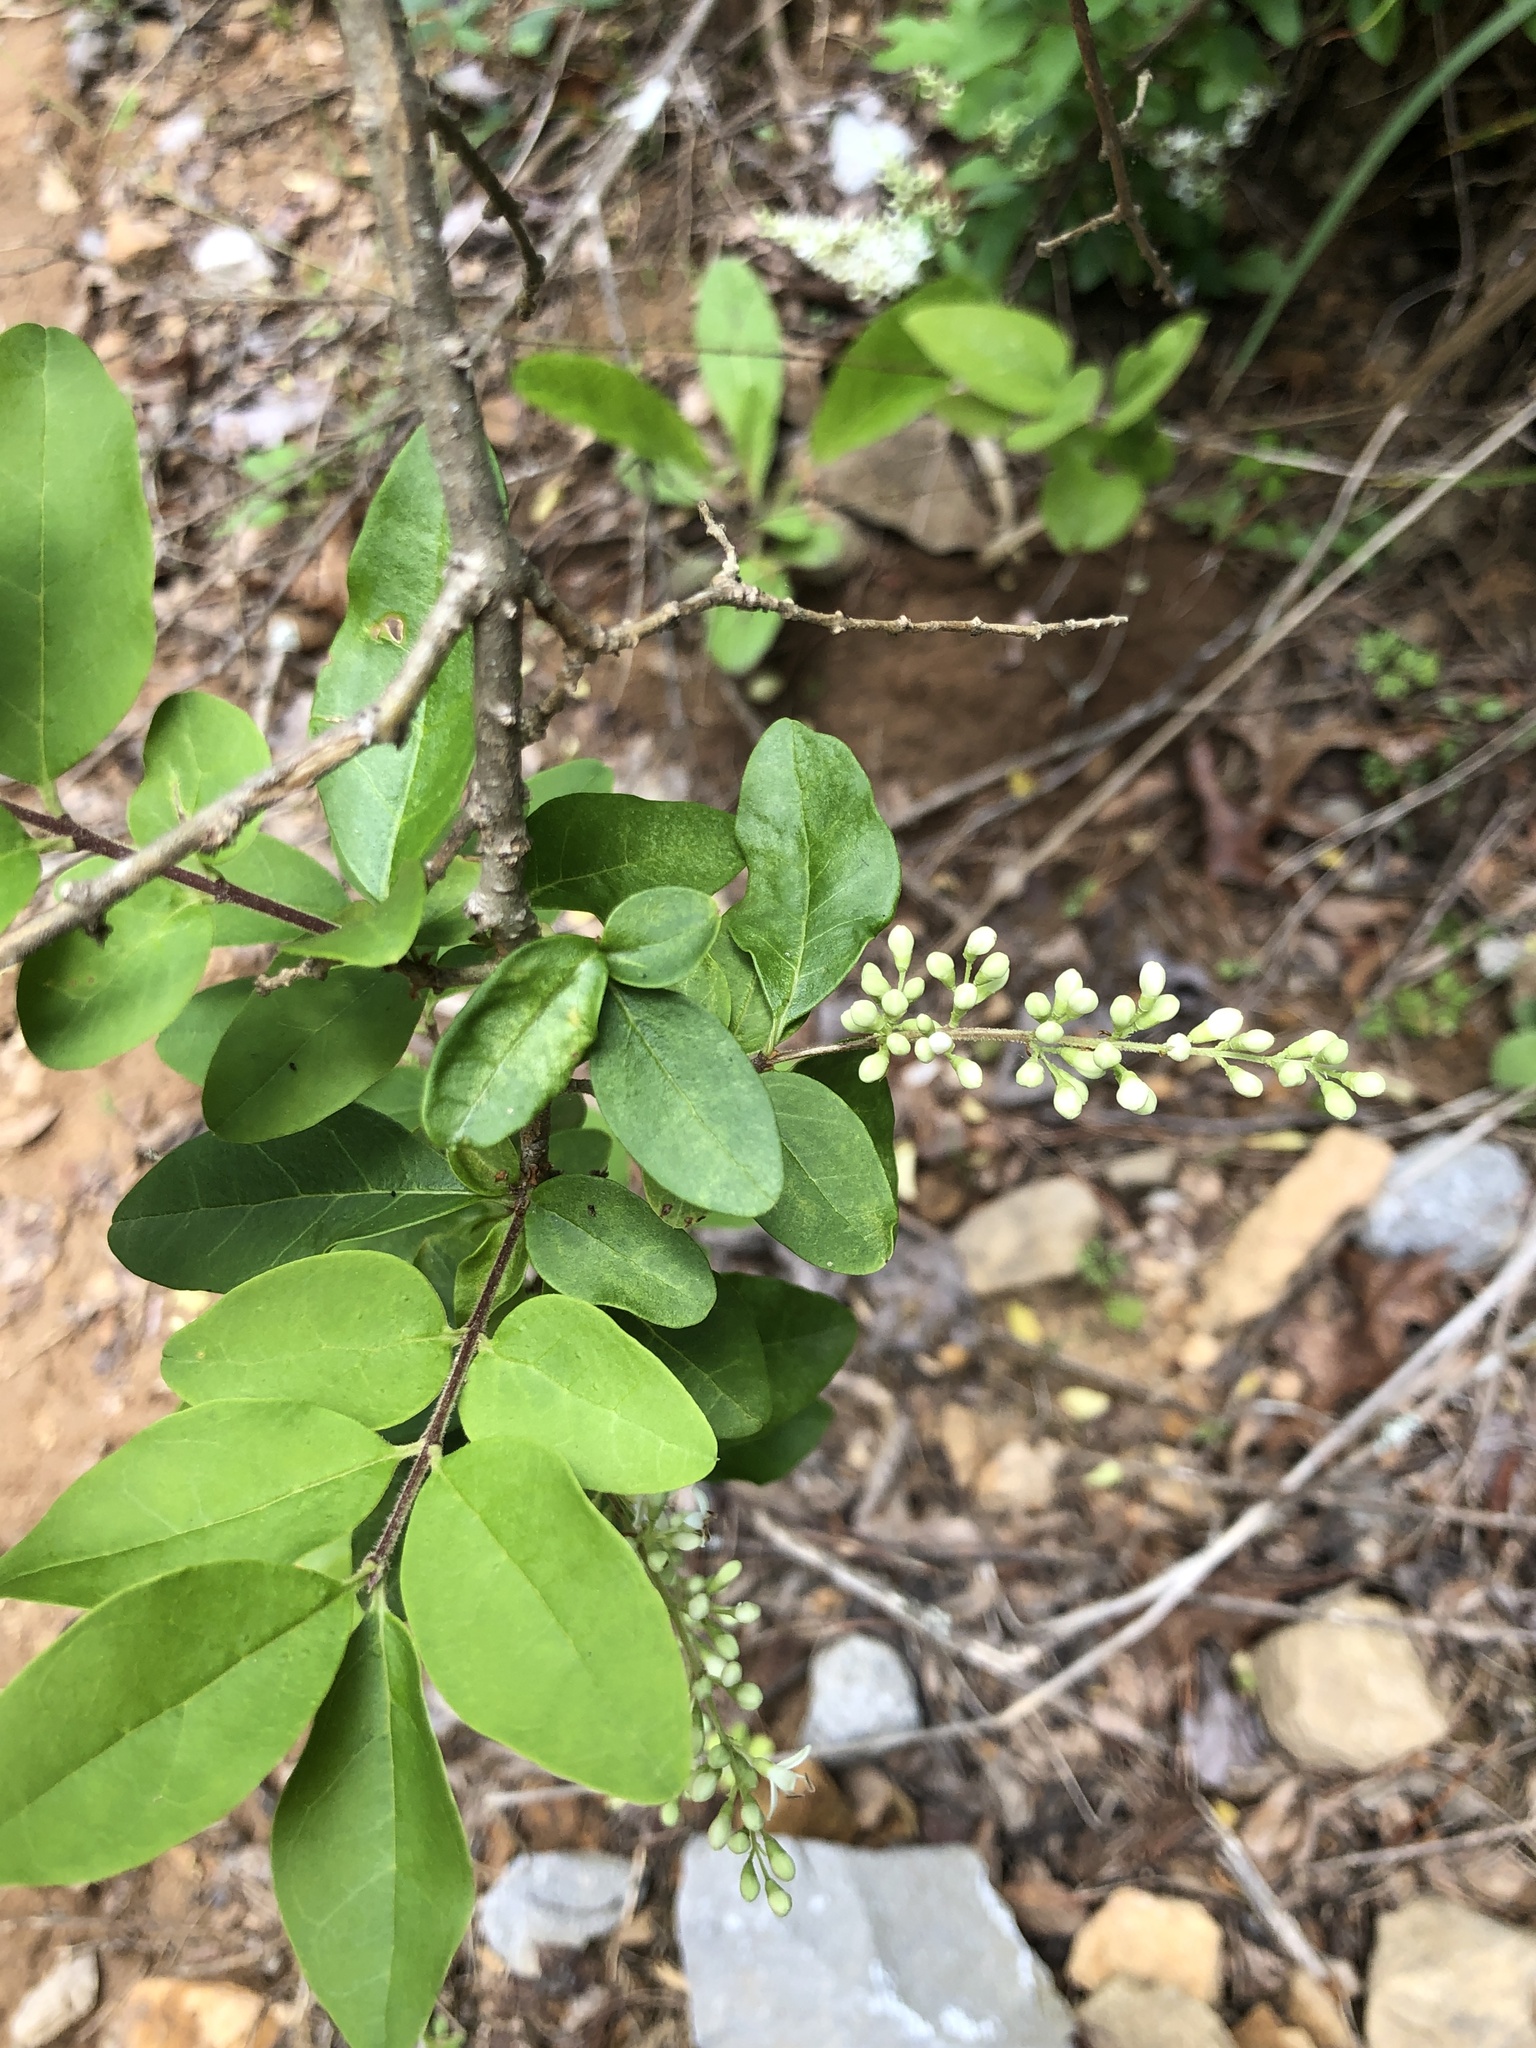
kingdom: Plantae
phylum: Tracheophyta
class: Magnoliopsida
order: Lamiales
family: Oleaceae
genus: Ligustrum
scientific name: Ligustrum sinense
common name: Chinese privet
